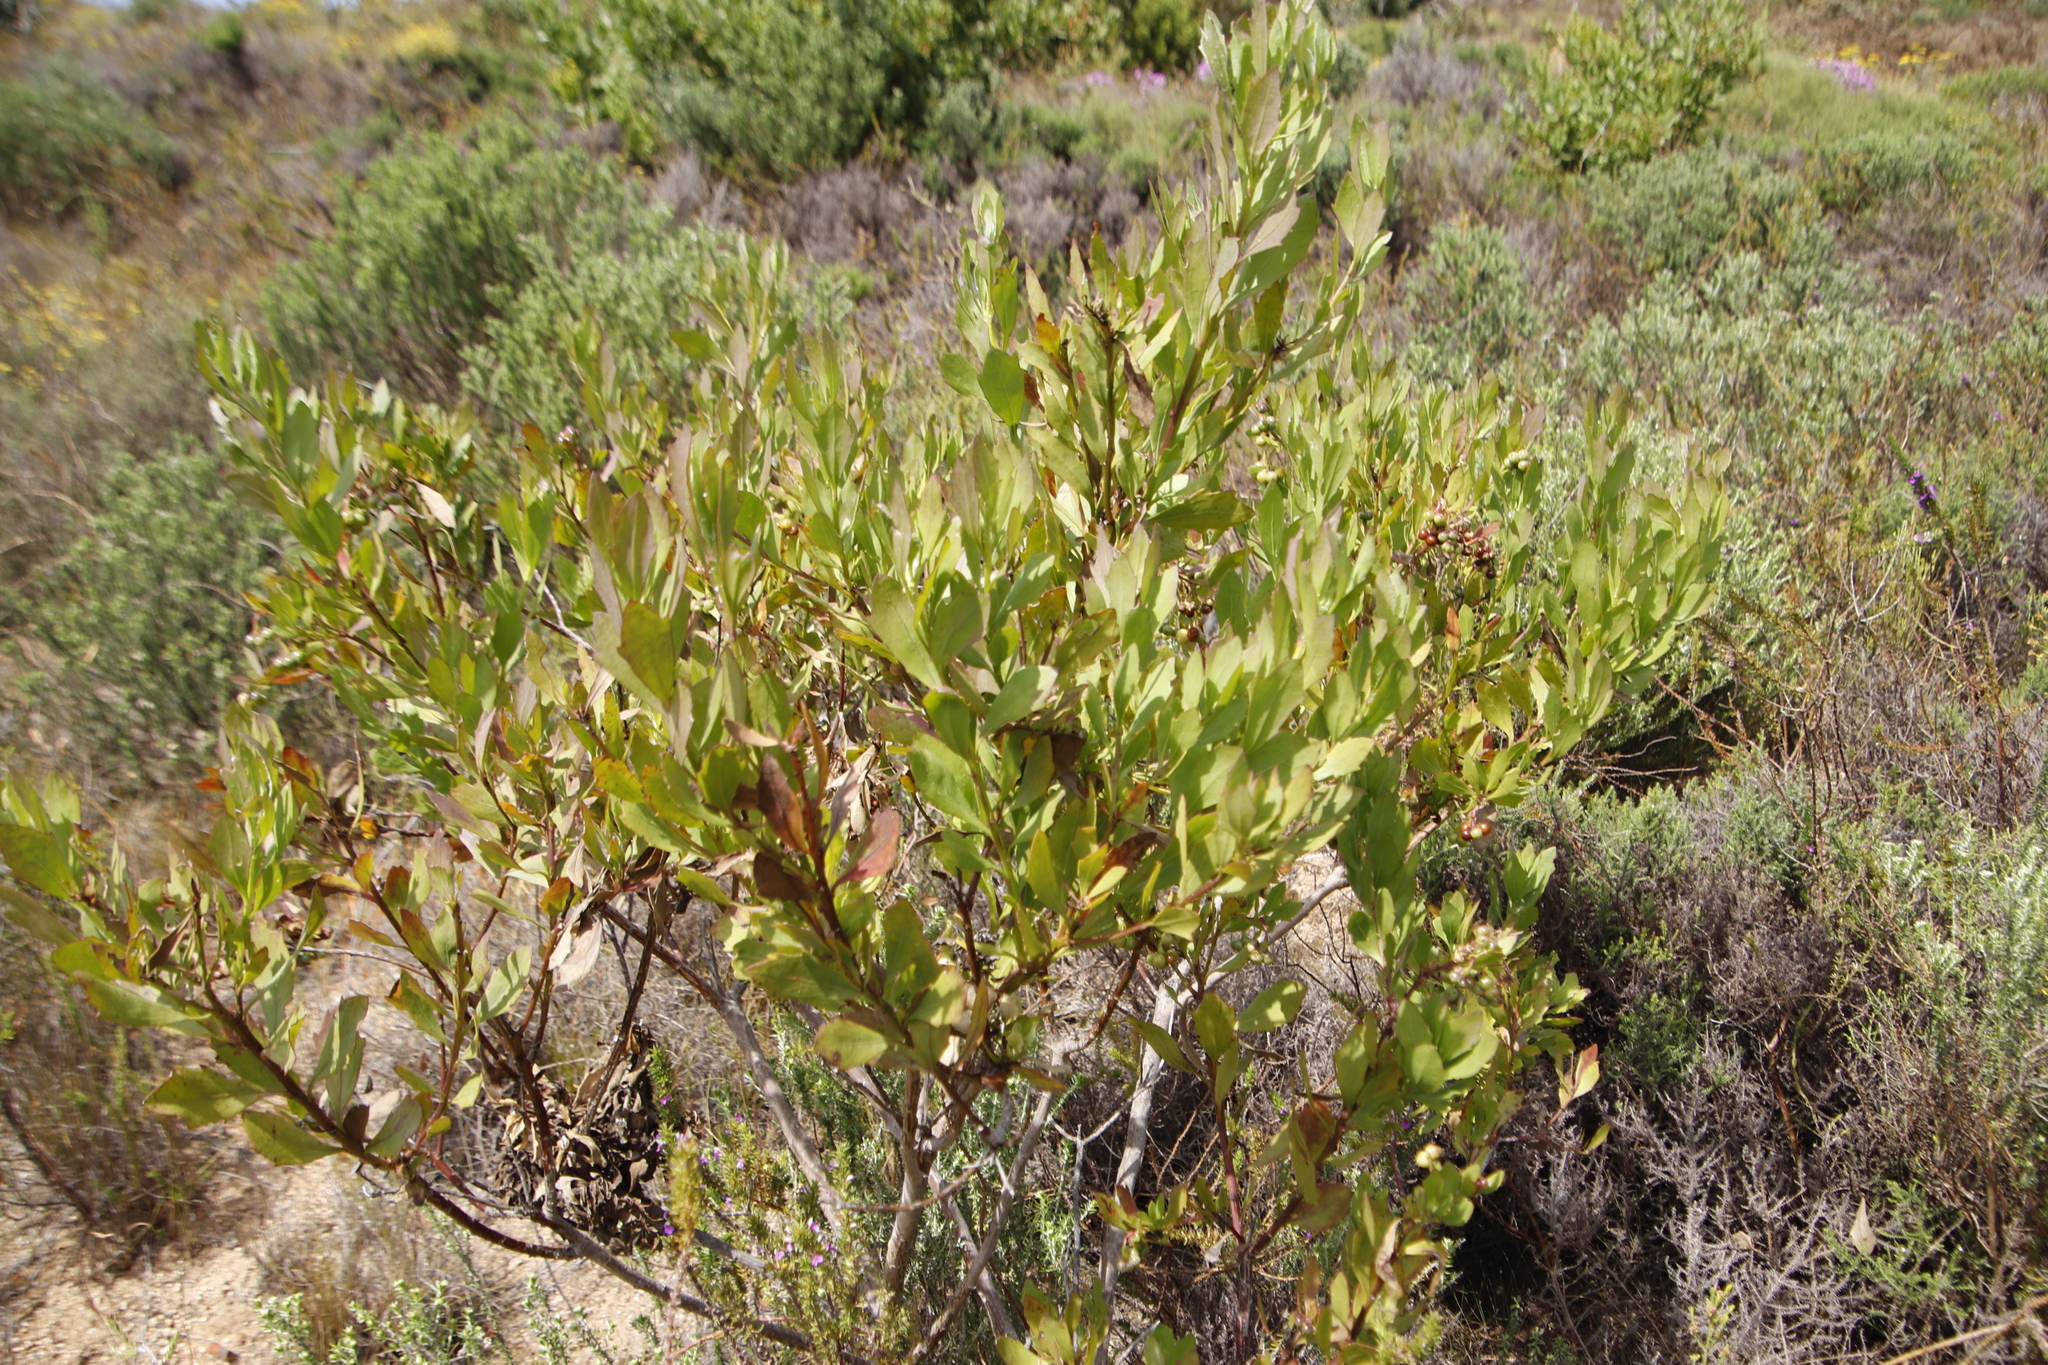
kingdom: Plantae
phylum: Tracheophyta
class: Magnoliopsida
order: Asterales
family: Asteraceae
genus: Osteospermum
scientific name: Osteospermum moniliferum
